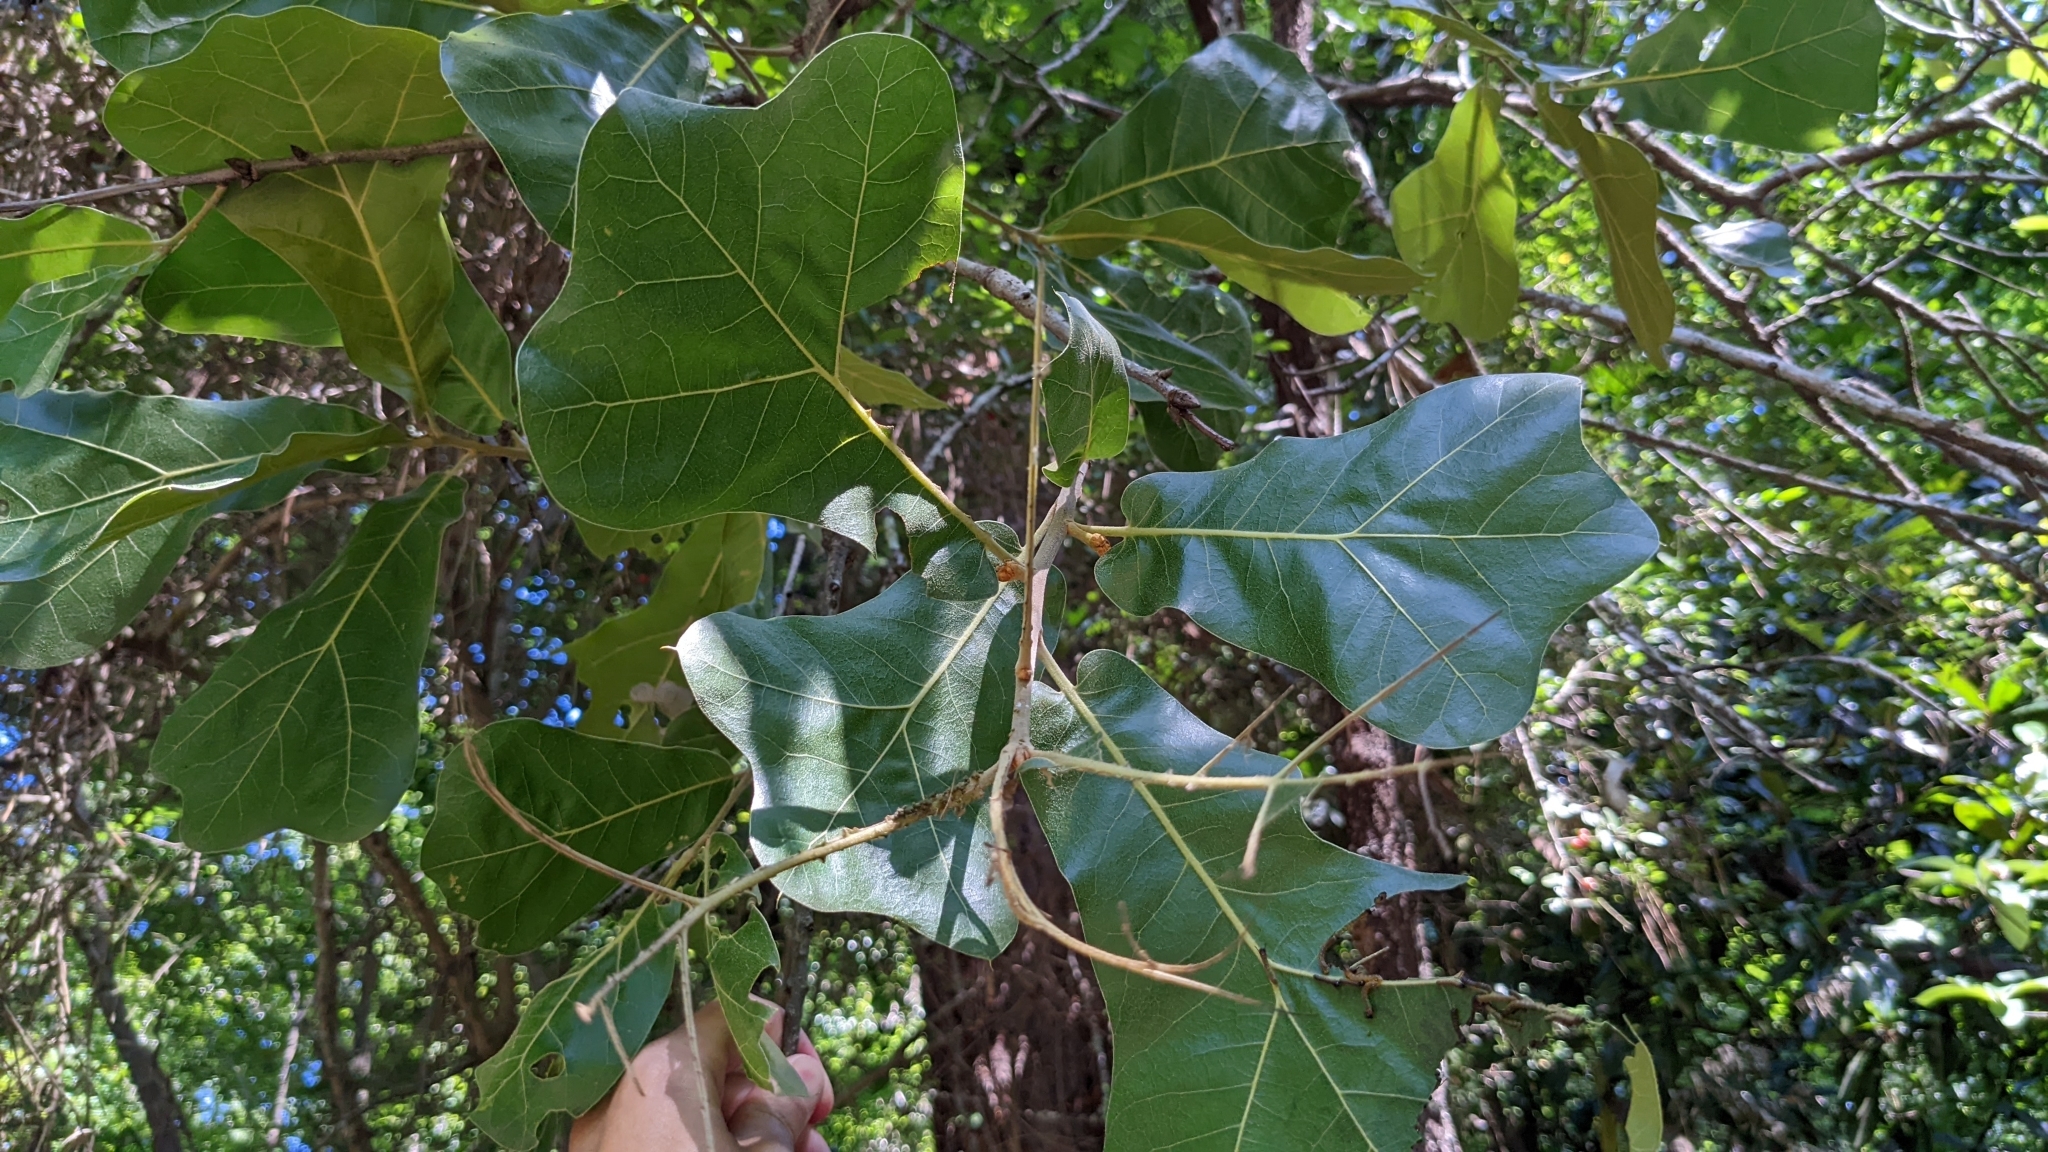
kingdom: Plantae
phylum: Tracheophyta
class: Magnoliopsida
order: Fagales
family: Fagaceae
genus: Quercus
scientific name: Quercus marilandica
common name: Blackjack oak
